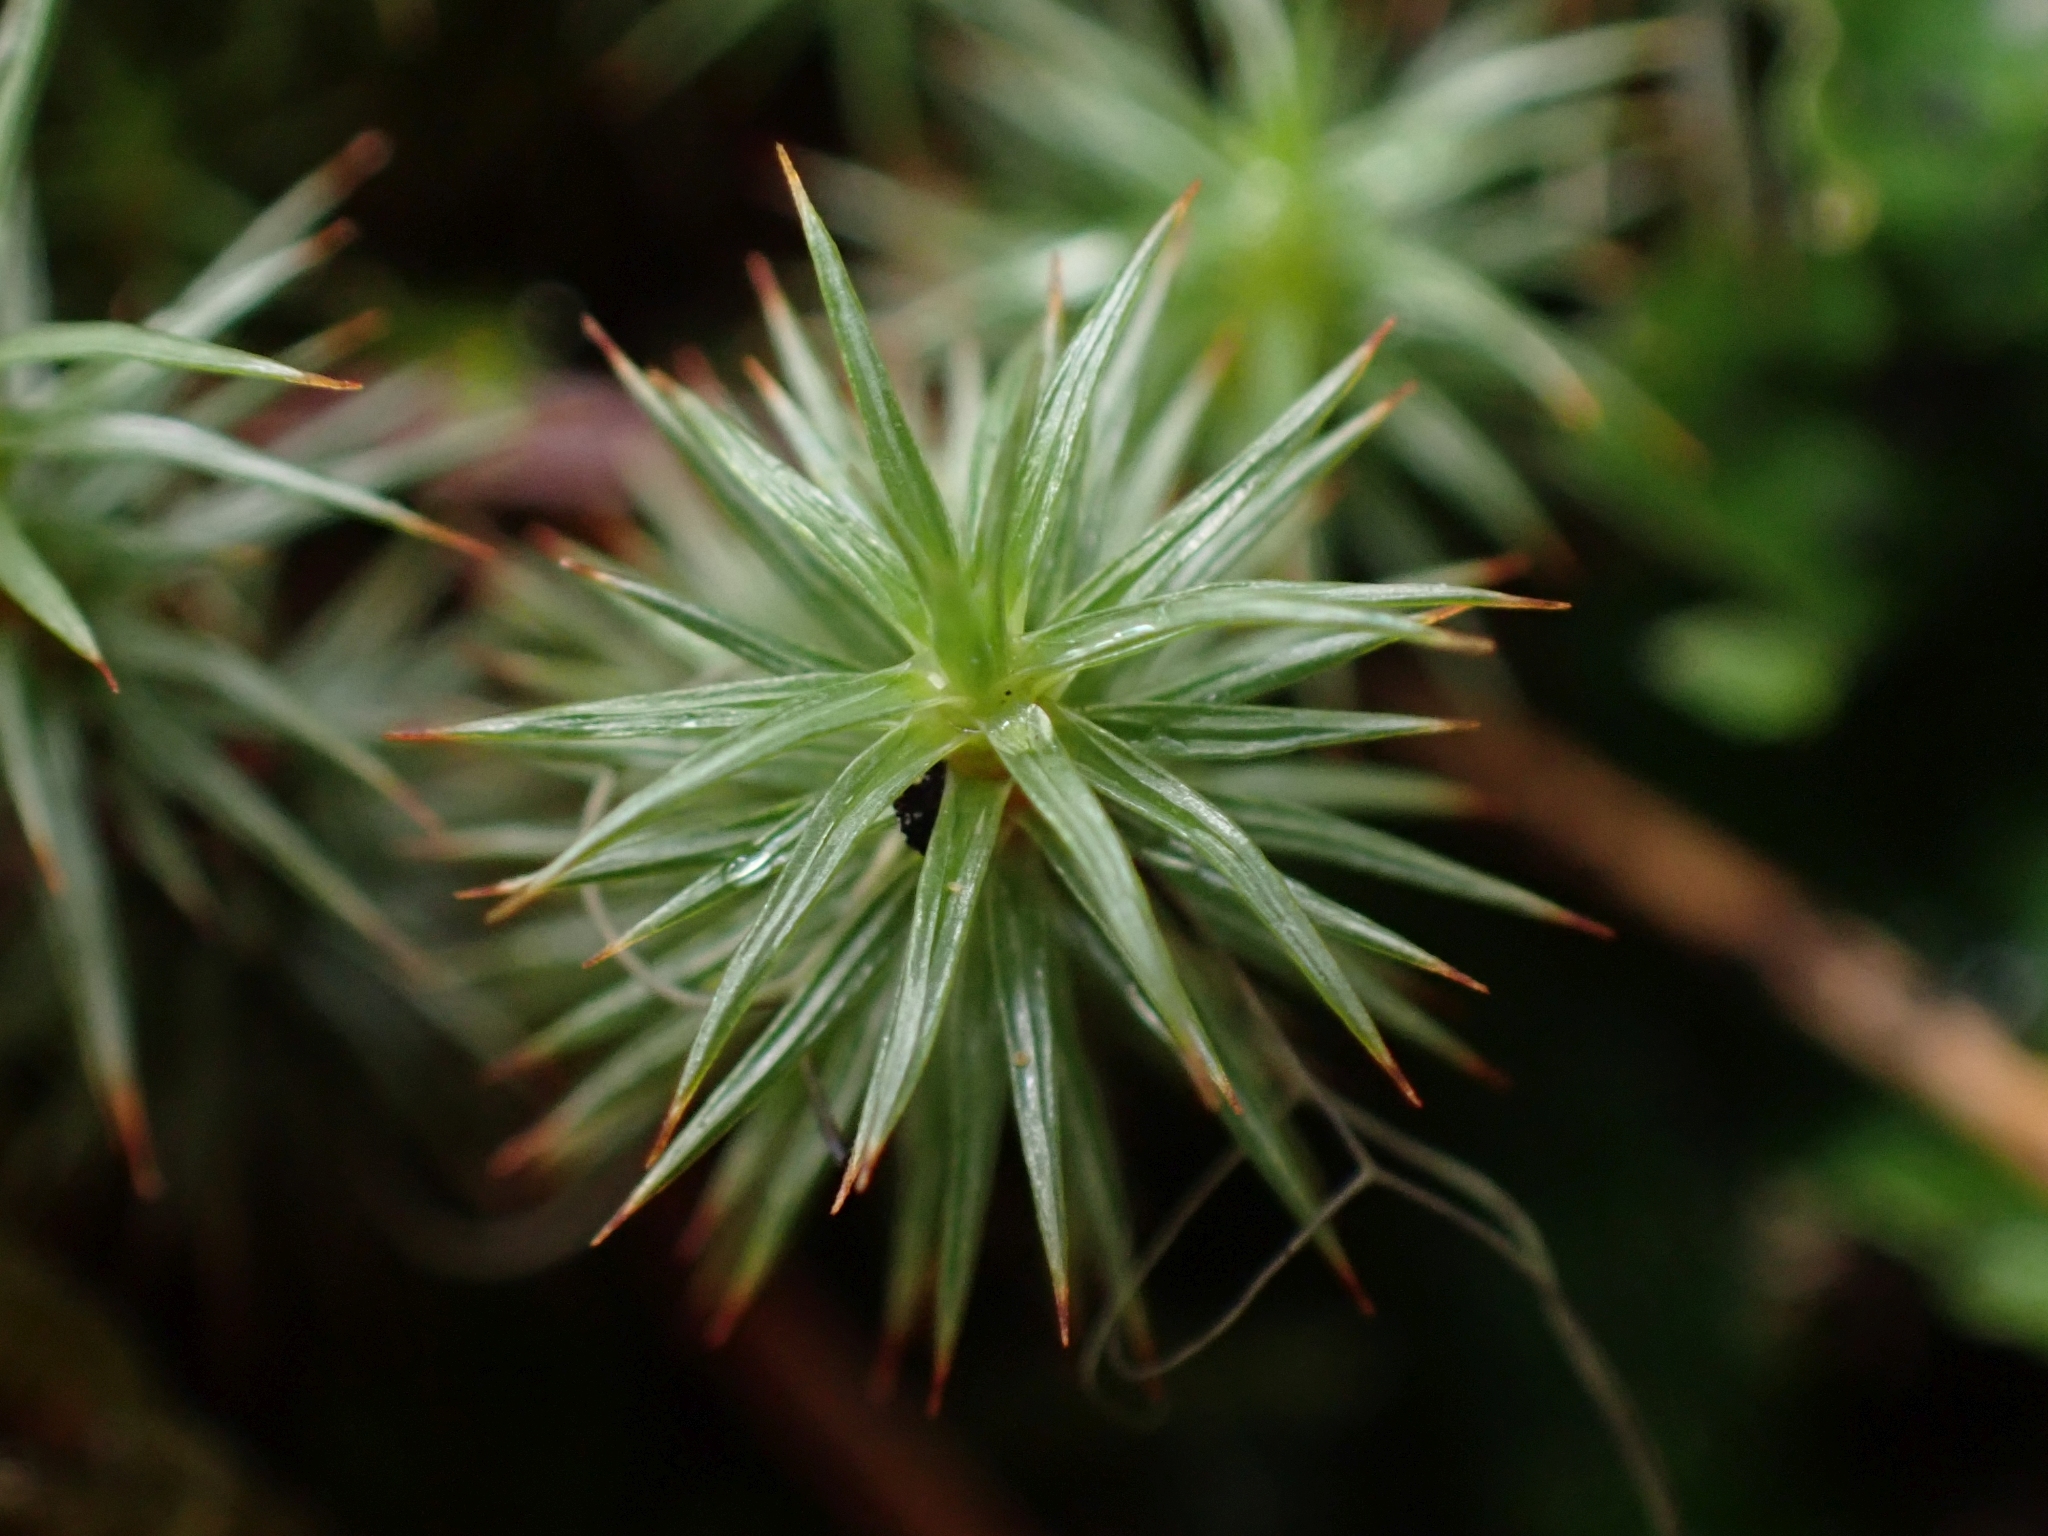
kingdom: Plantae
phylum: Bryophyta
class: Polytrichopsida
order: Polytrichales
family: Polytrichaceae
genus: Polytrichum
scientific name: Polytrichum juniperinum
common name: Juniper haircap moss
